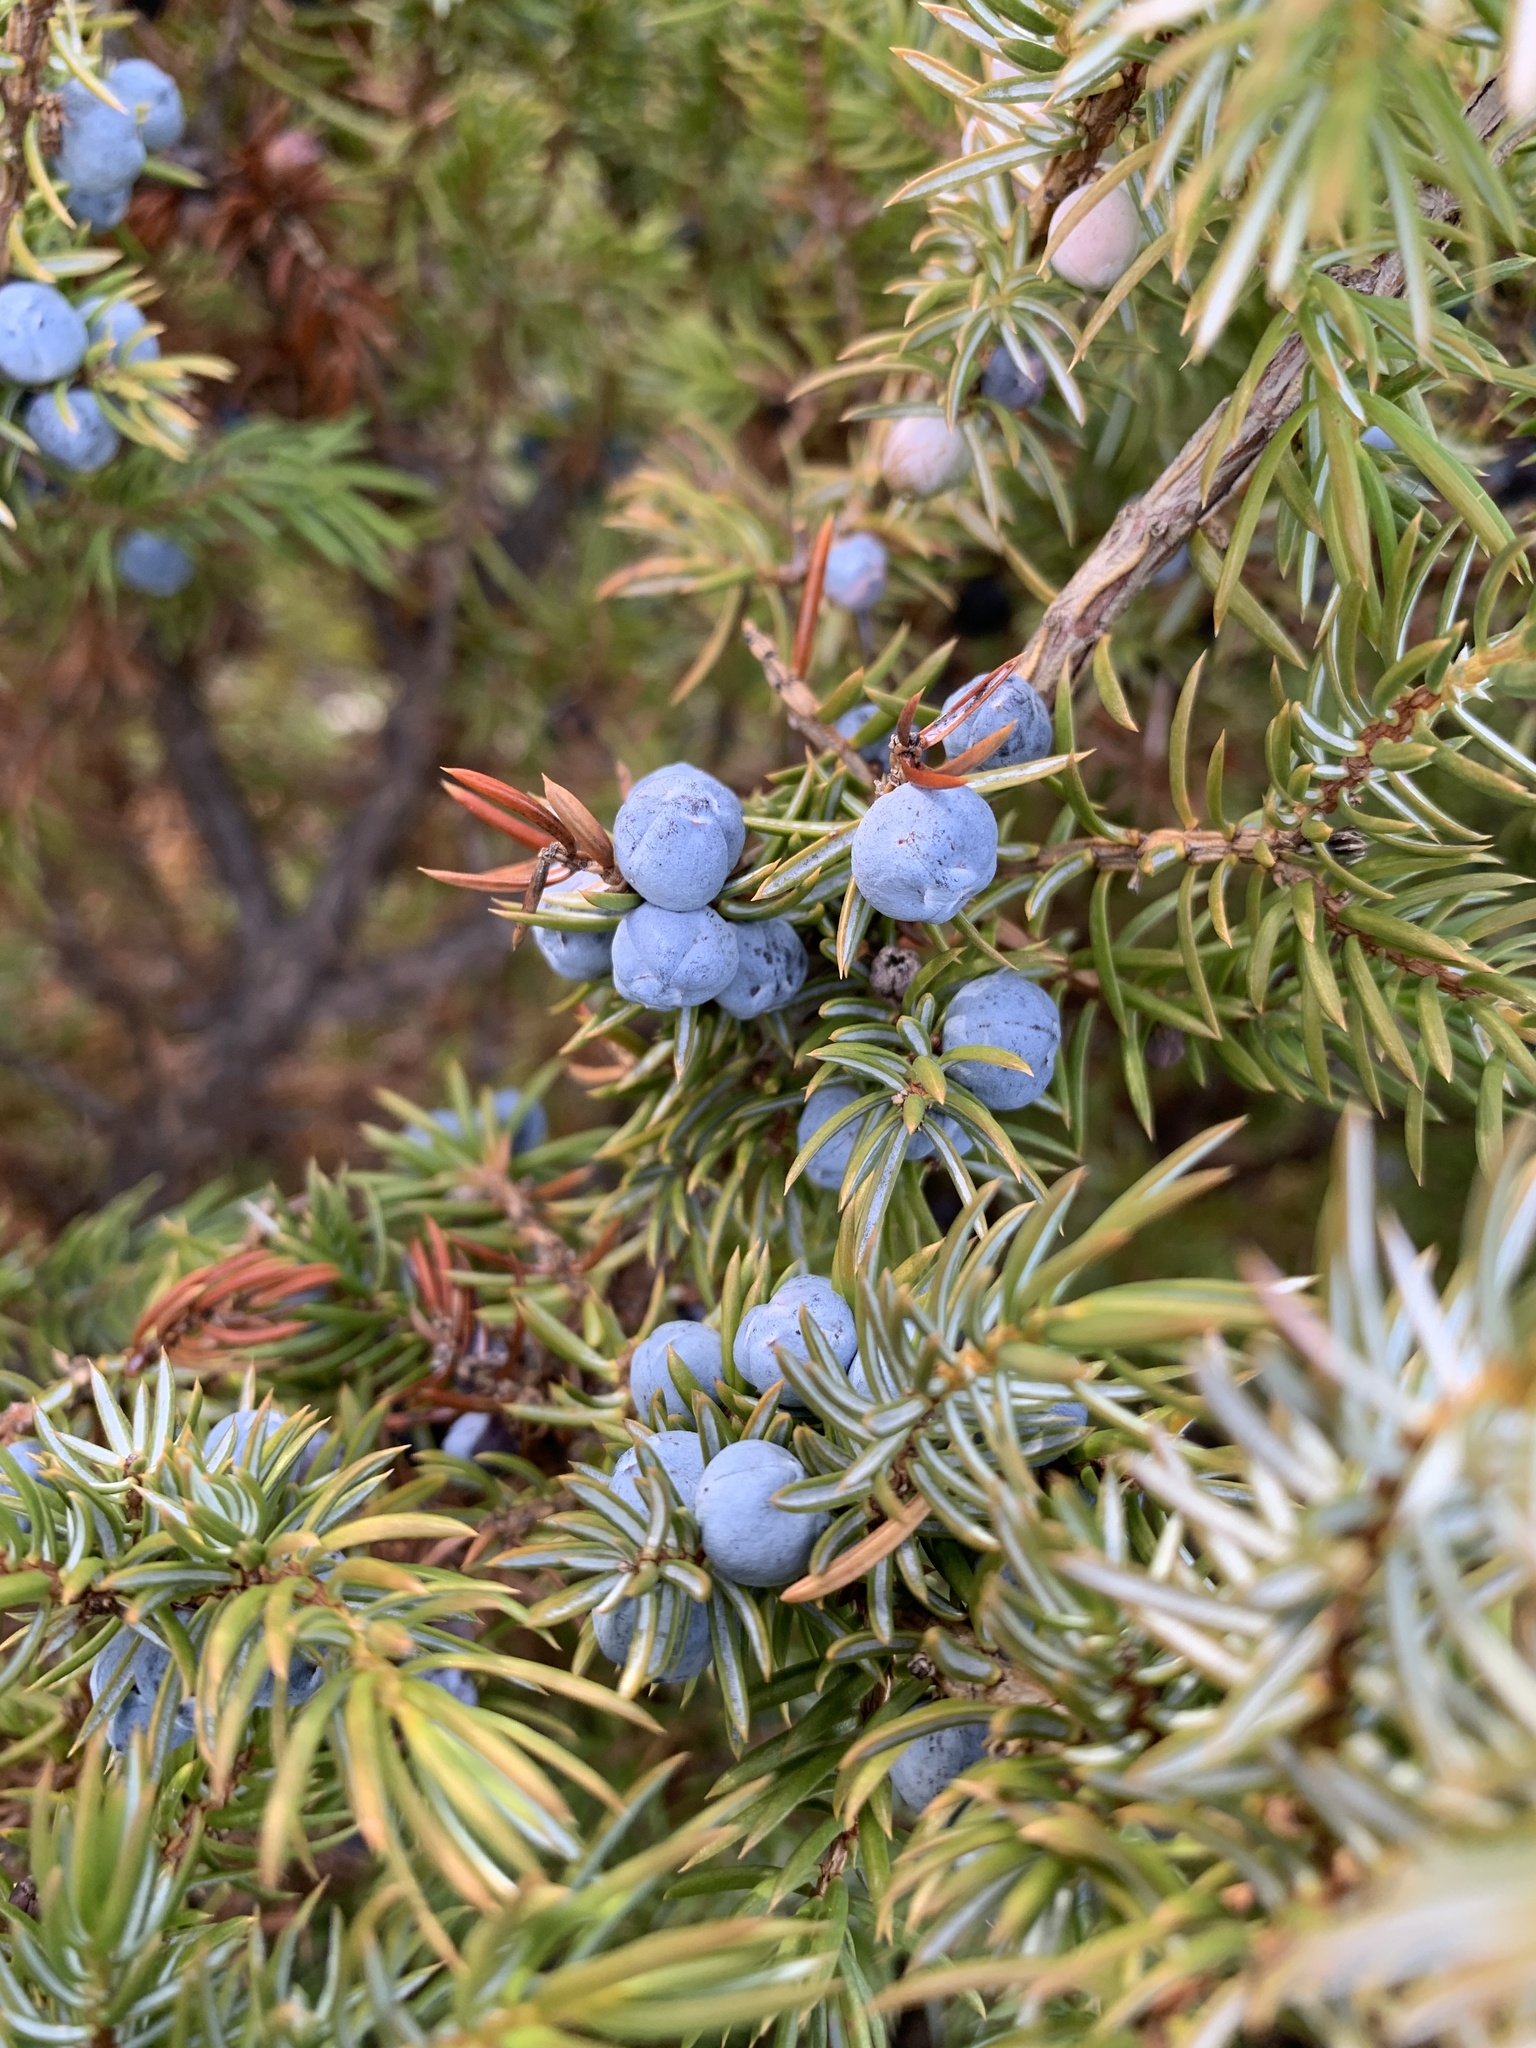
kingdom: Plantae
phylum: Tracheophyta
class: Pinopsida
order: Pinales
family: Cupressaceae
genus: Juniperus
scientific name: Juniperus communis
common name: Common juniper
